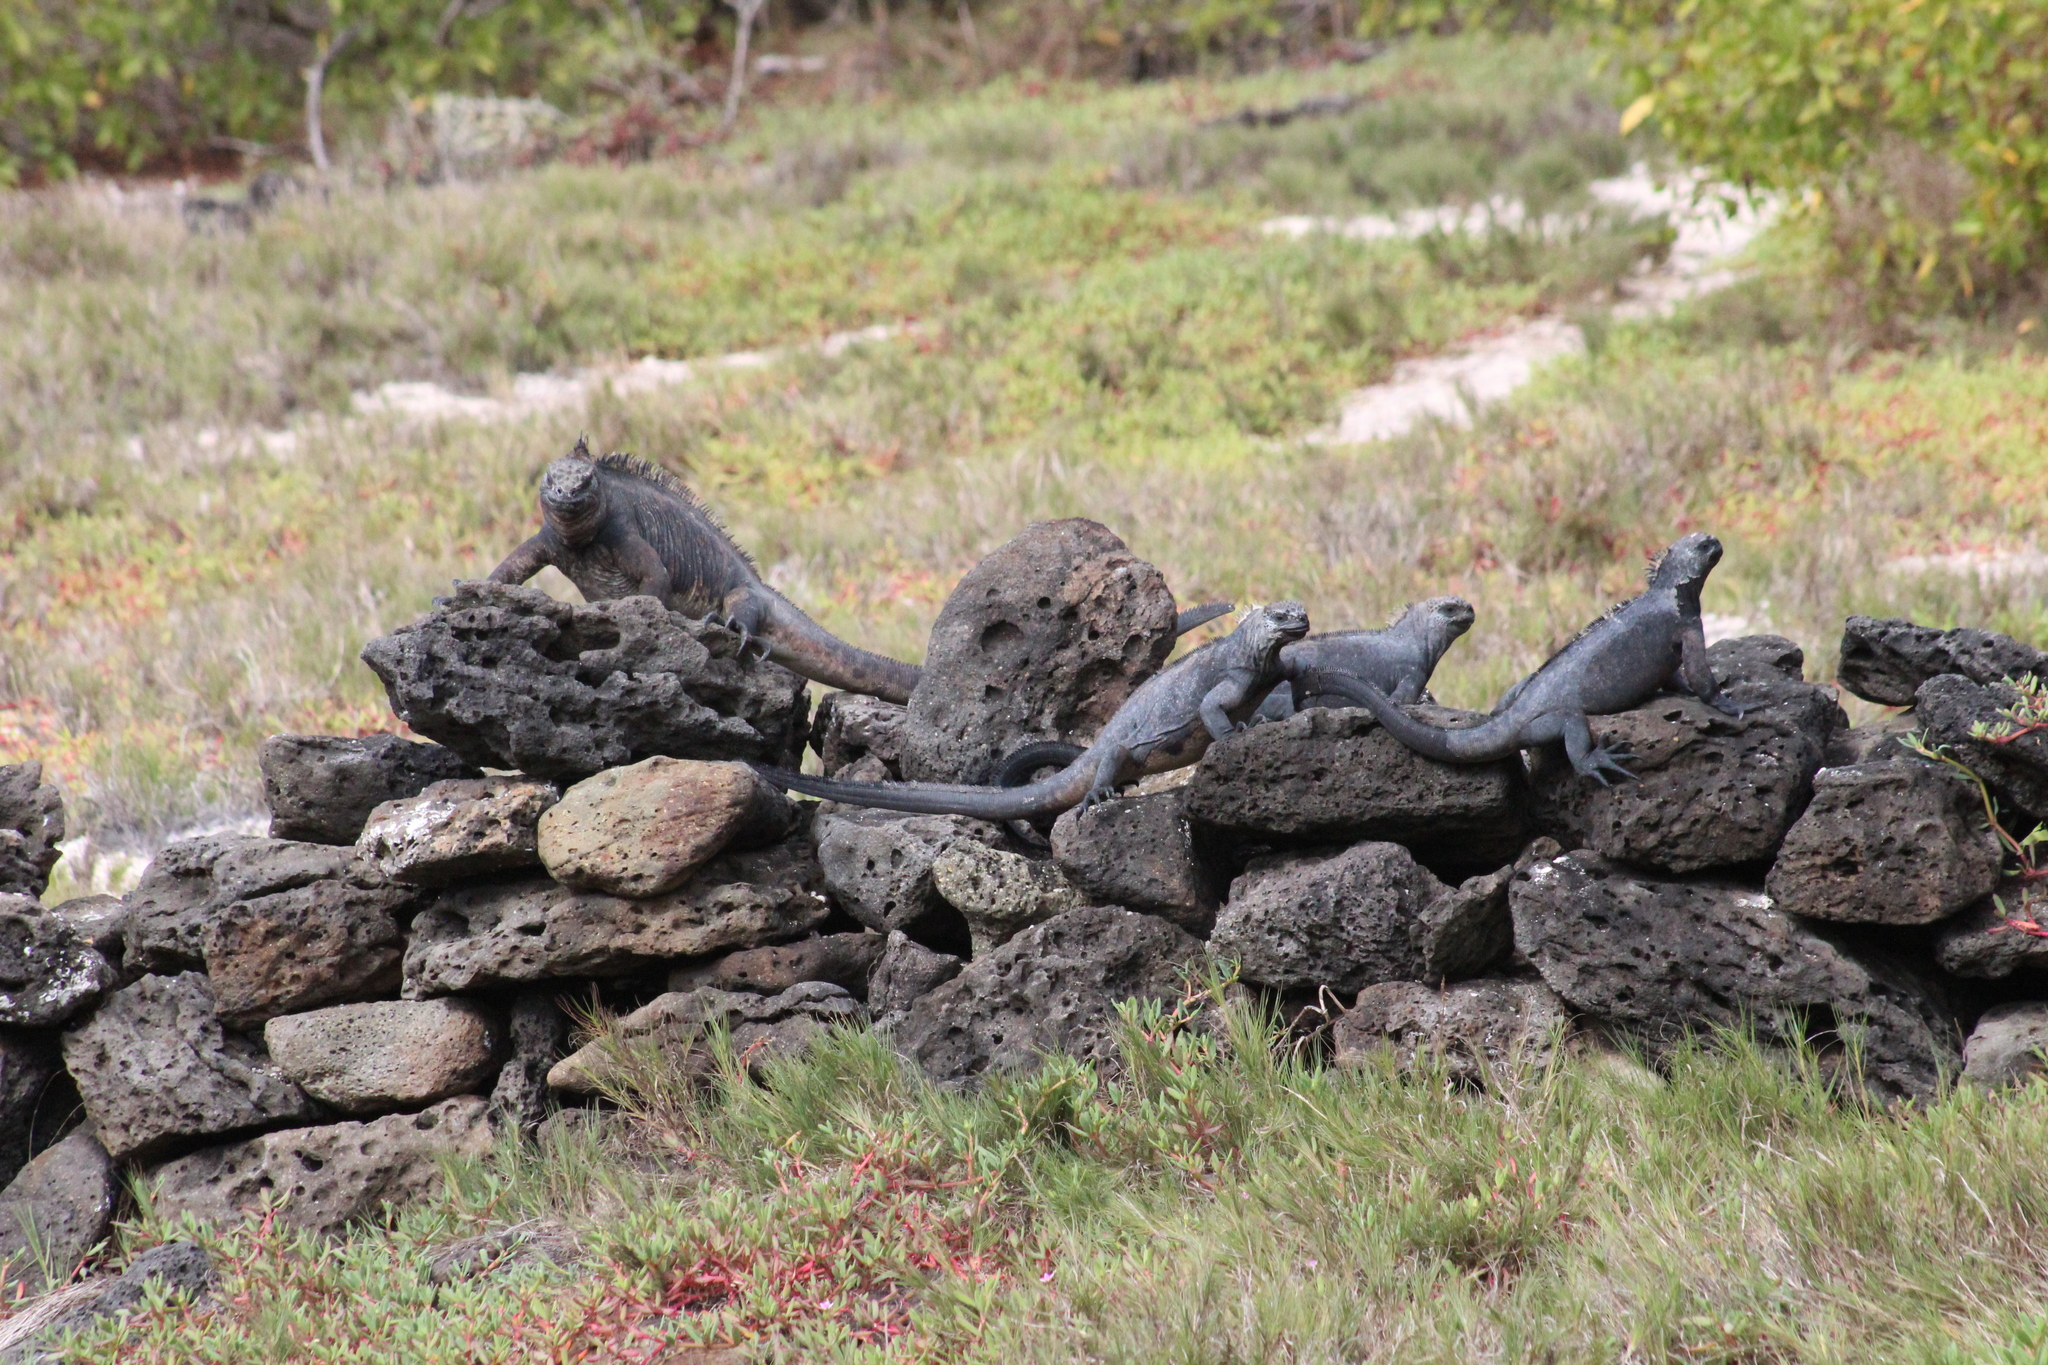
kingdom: Animalia
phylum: Chordata
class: Squamata
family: Iguanidae
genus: Amblyrhynchus
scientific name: Amblyrhynchus cristatus
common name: Marine iguana
